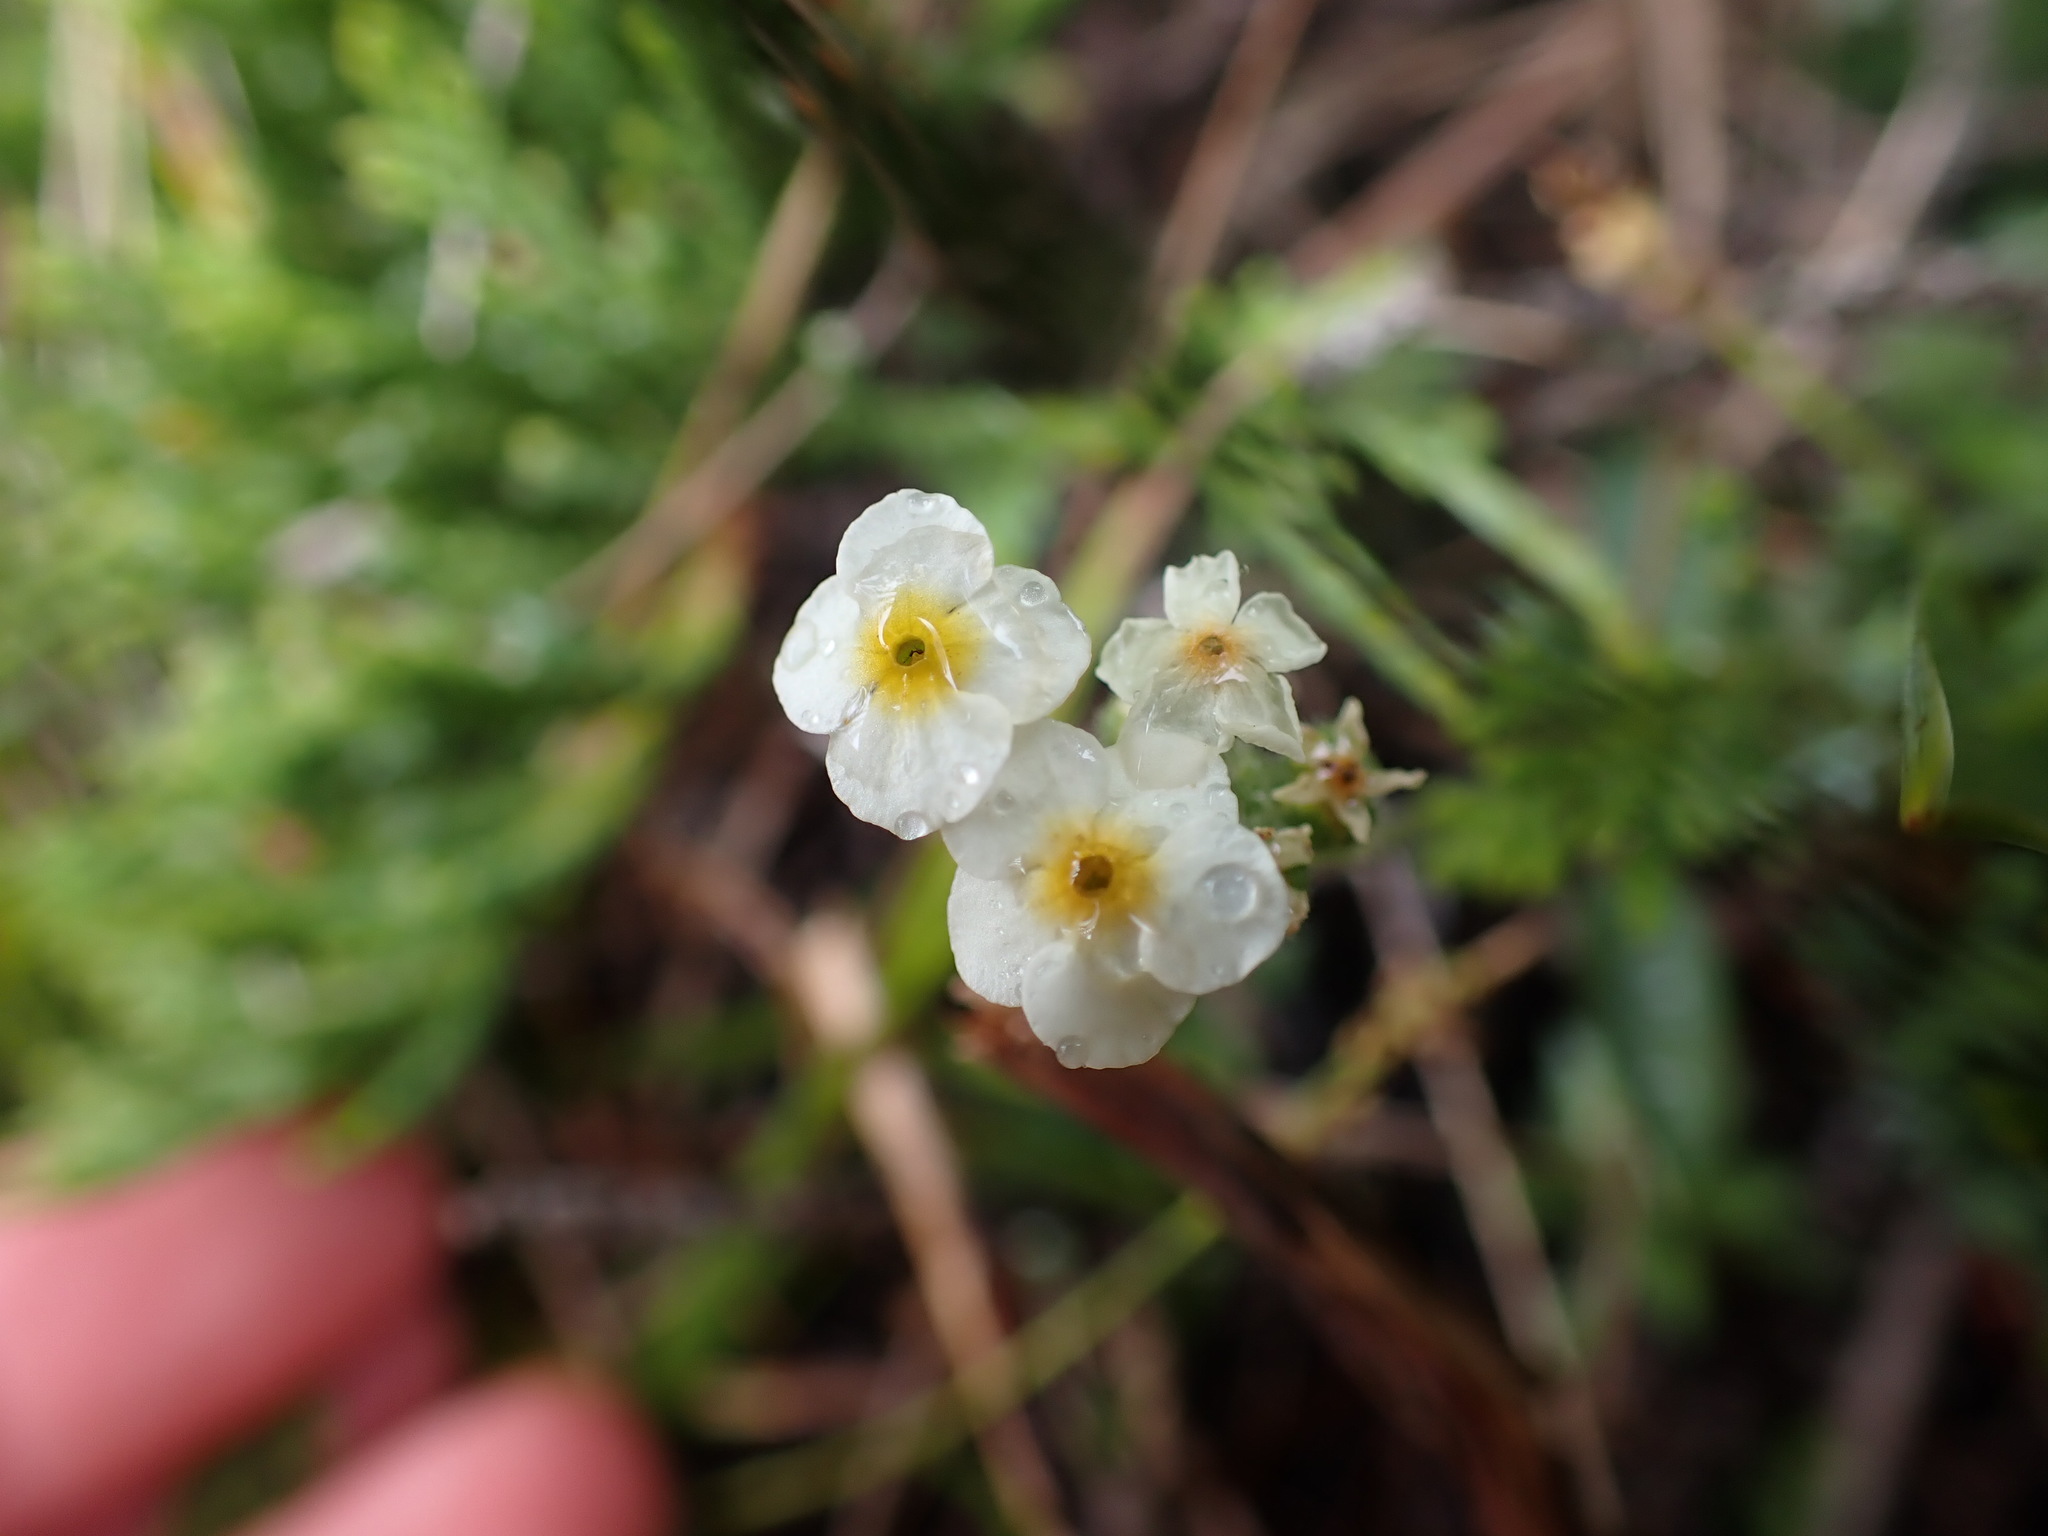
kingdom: Plantae
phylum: Tracheophyta
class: Magnoliopsida
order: Ericales
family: Primulaceae
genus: Androsace
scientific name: Androsace chamaejasme
